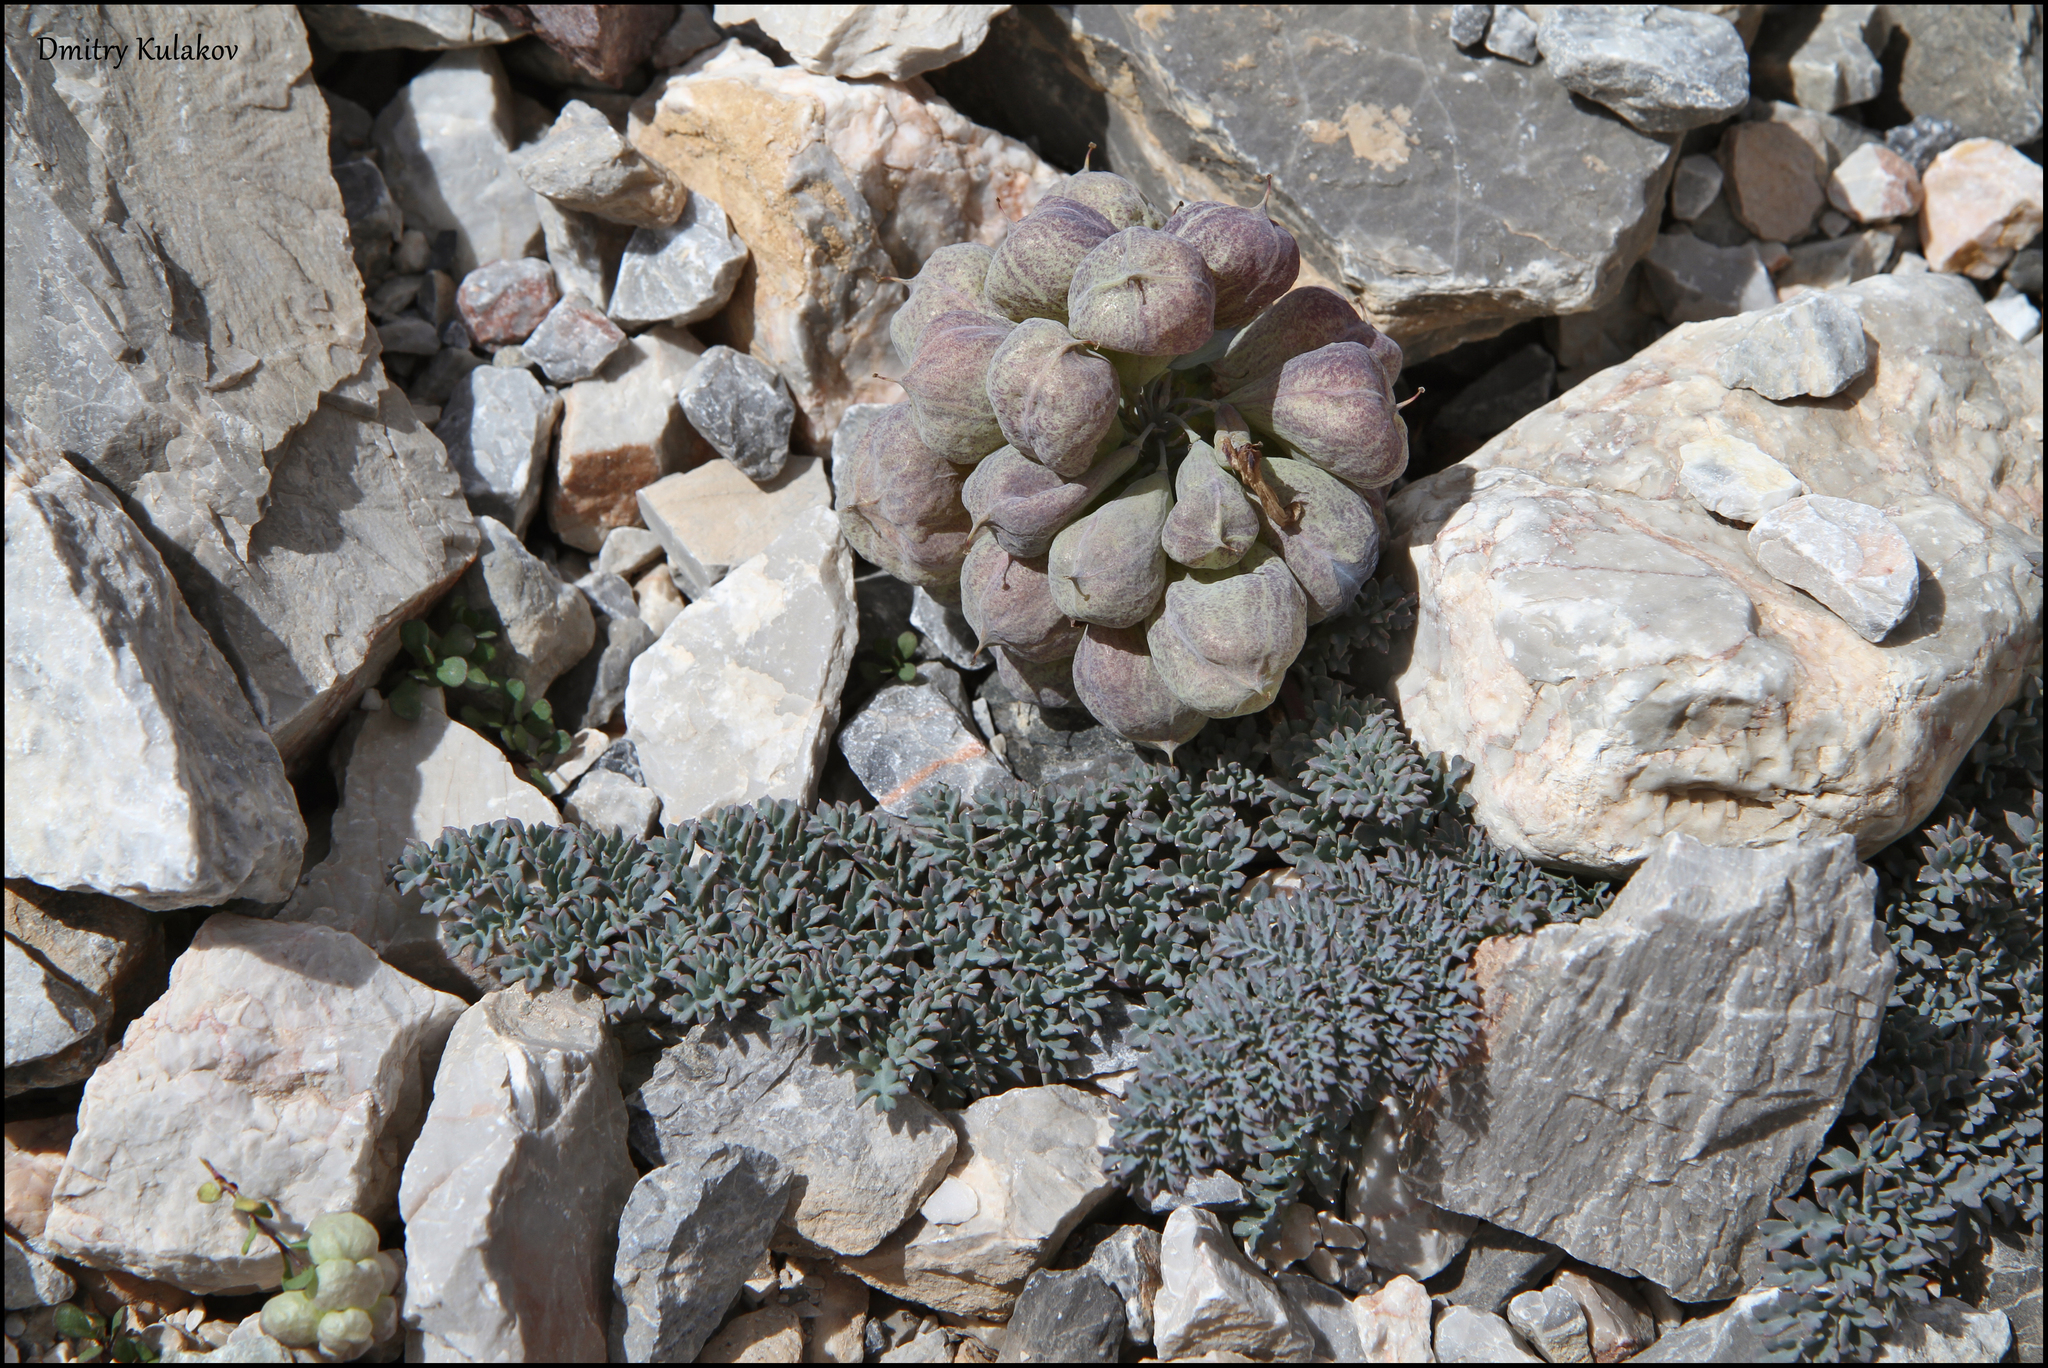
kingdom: Plantae
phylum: Tracheophyta
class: Magnoliopsida
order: Ranunculales
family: Papaveraceae
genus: Corydalis
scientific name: Corydalis fedtschenkoana
